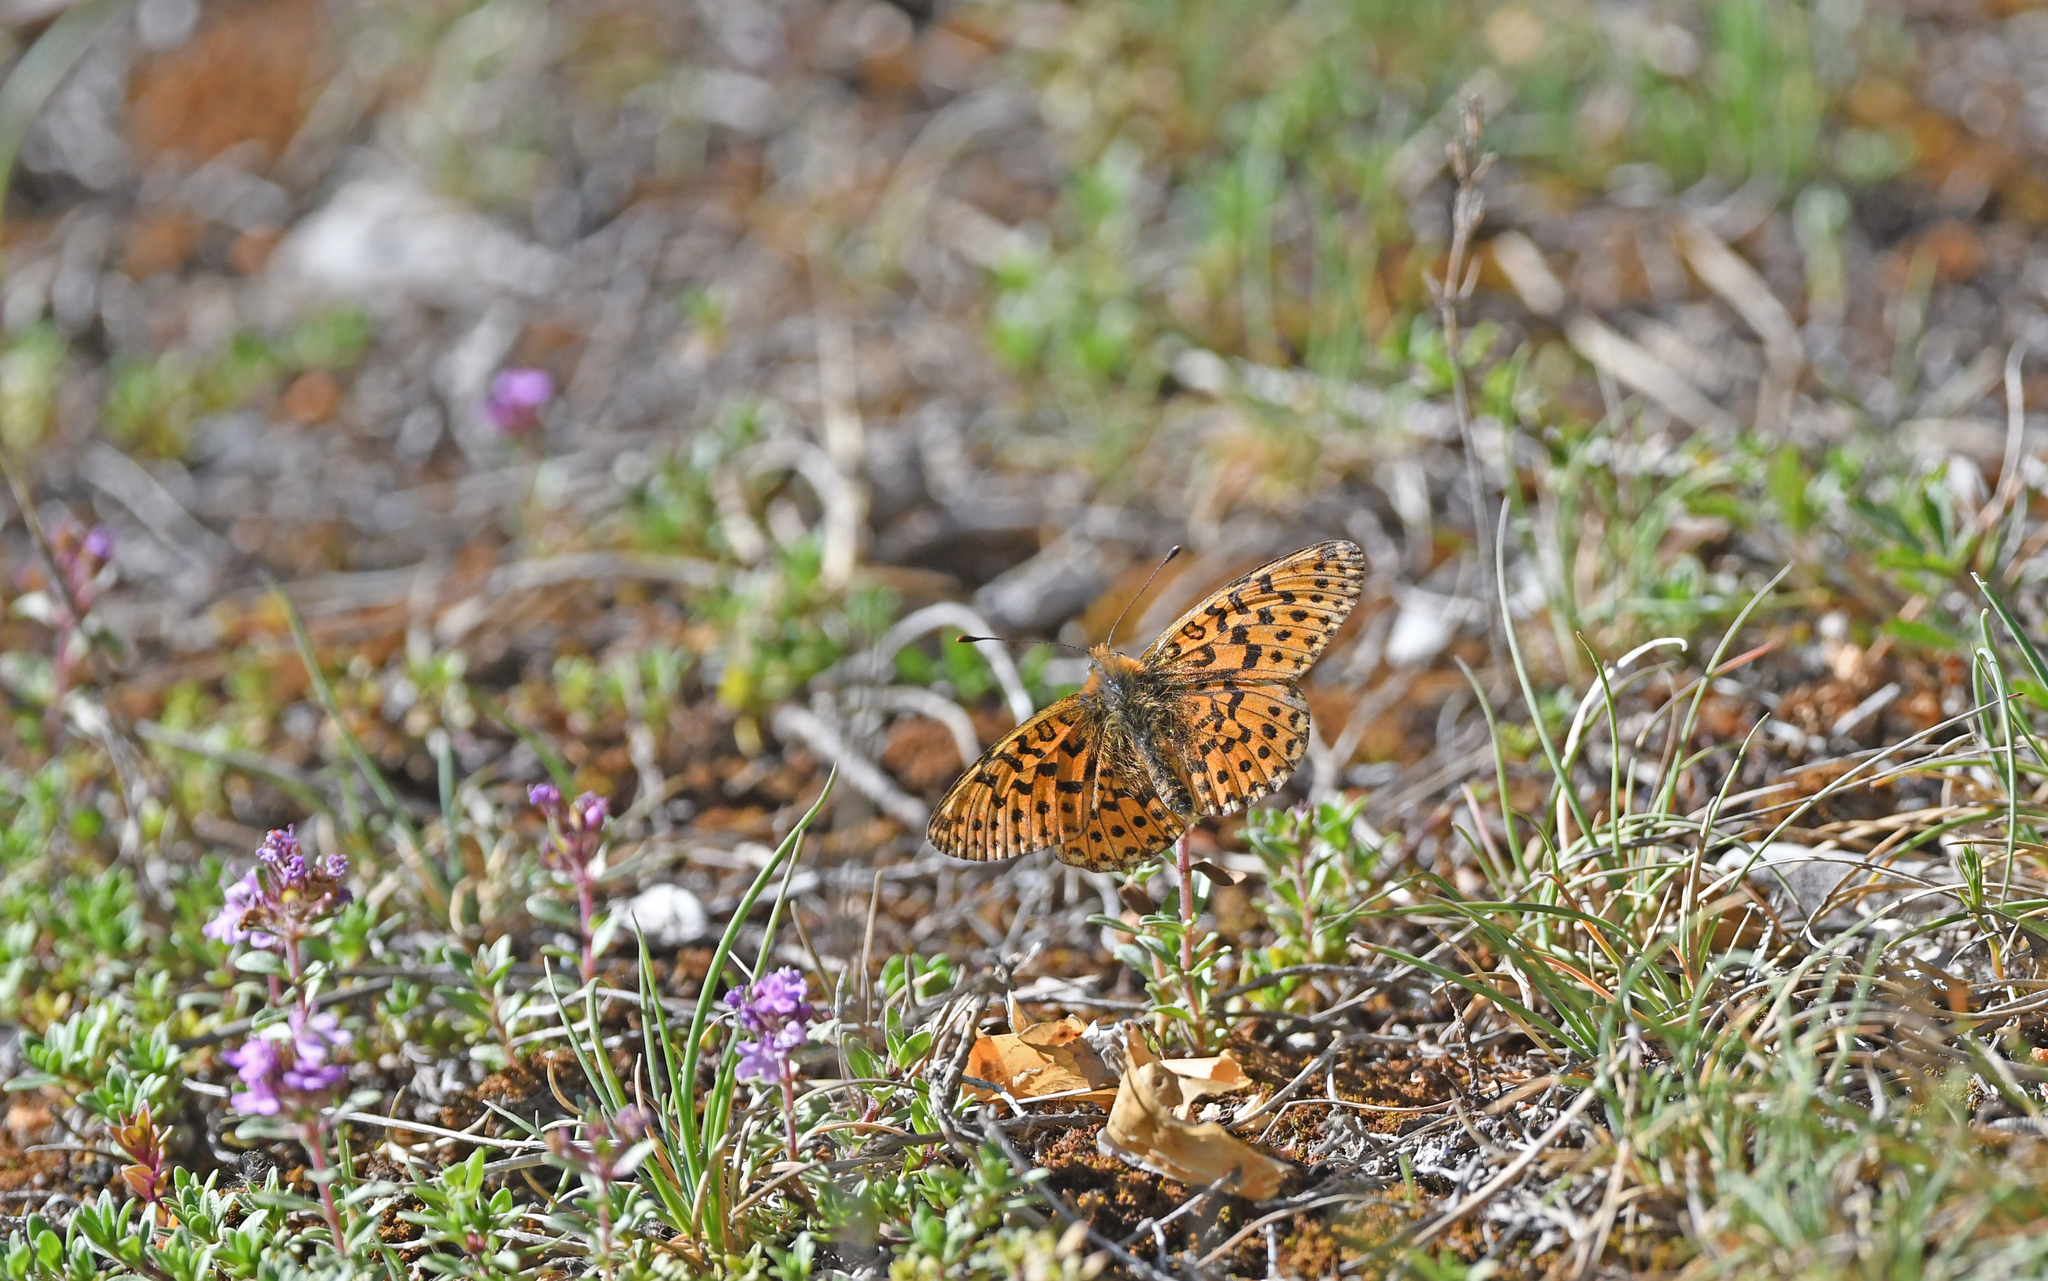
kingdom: Animalia
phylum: Arthropoda
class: Insecta
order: Lepidoptera
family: Nymphalidae
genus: Clossiana
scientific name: Clossiana euphrosyne
